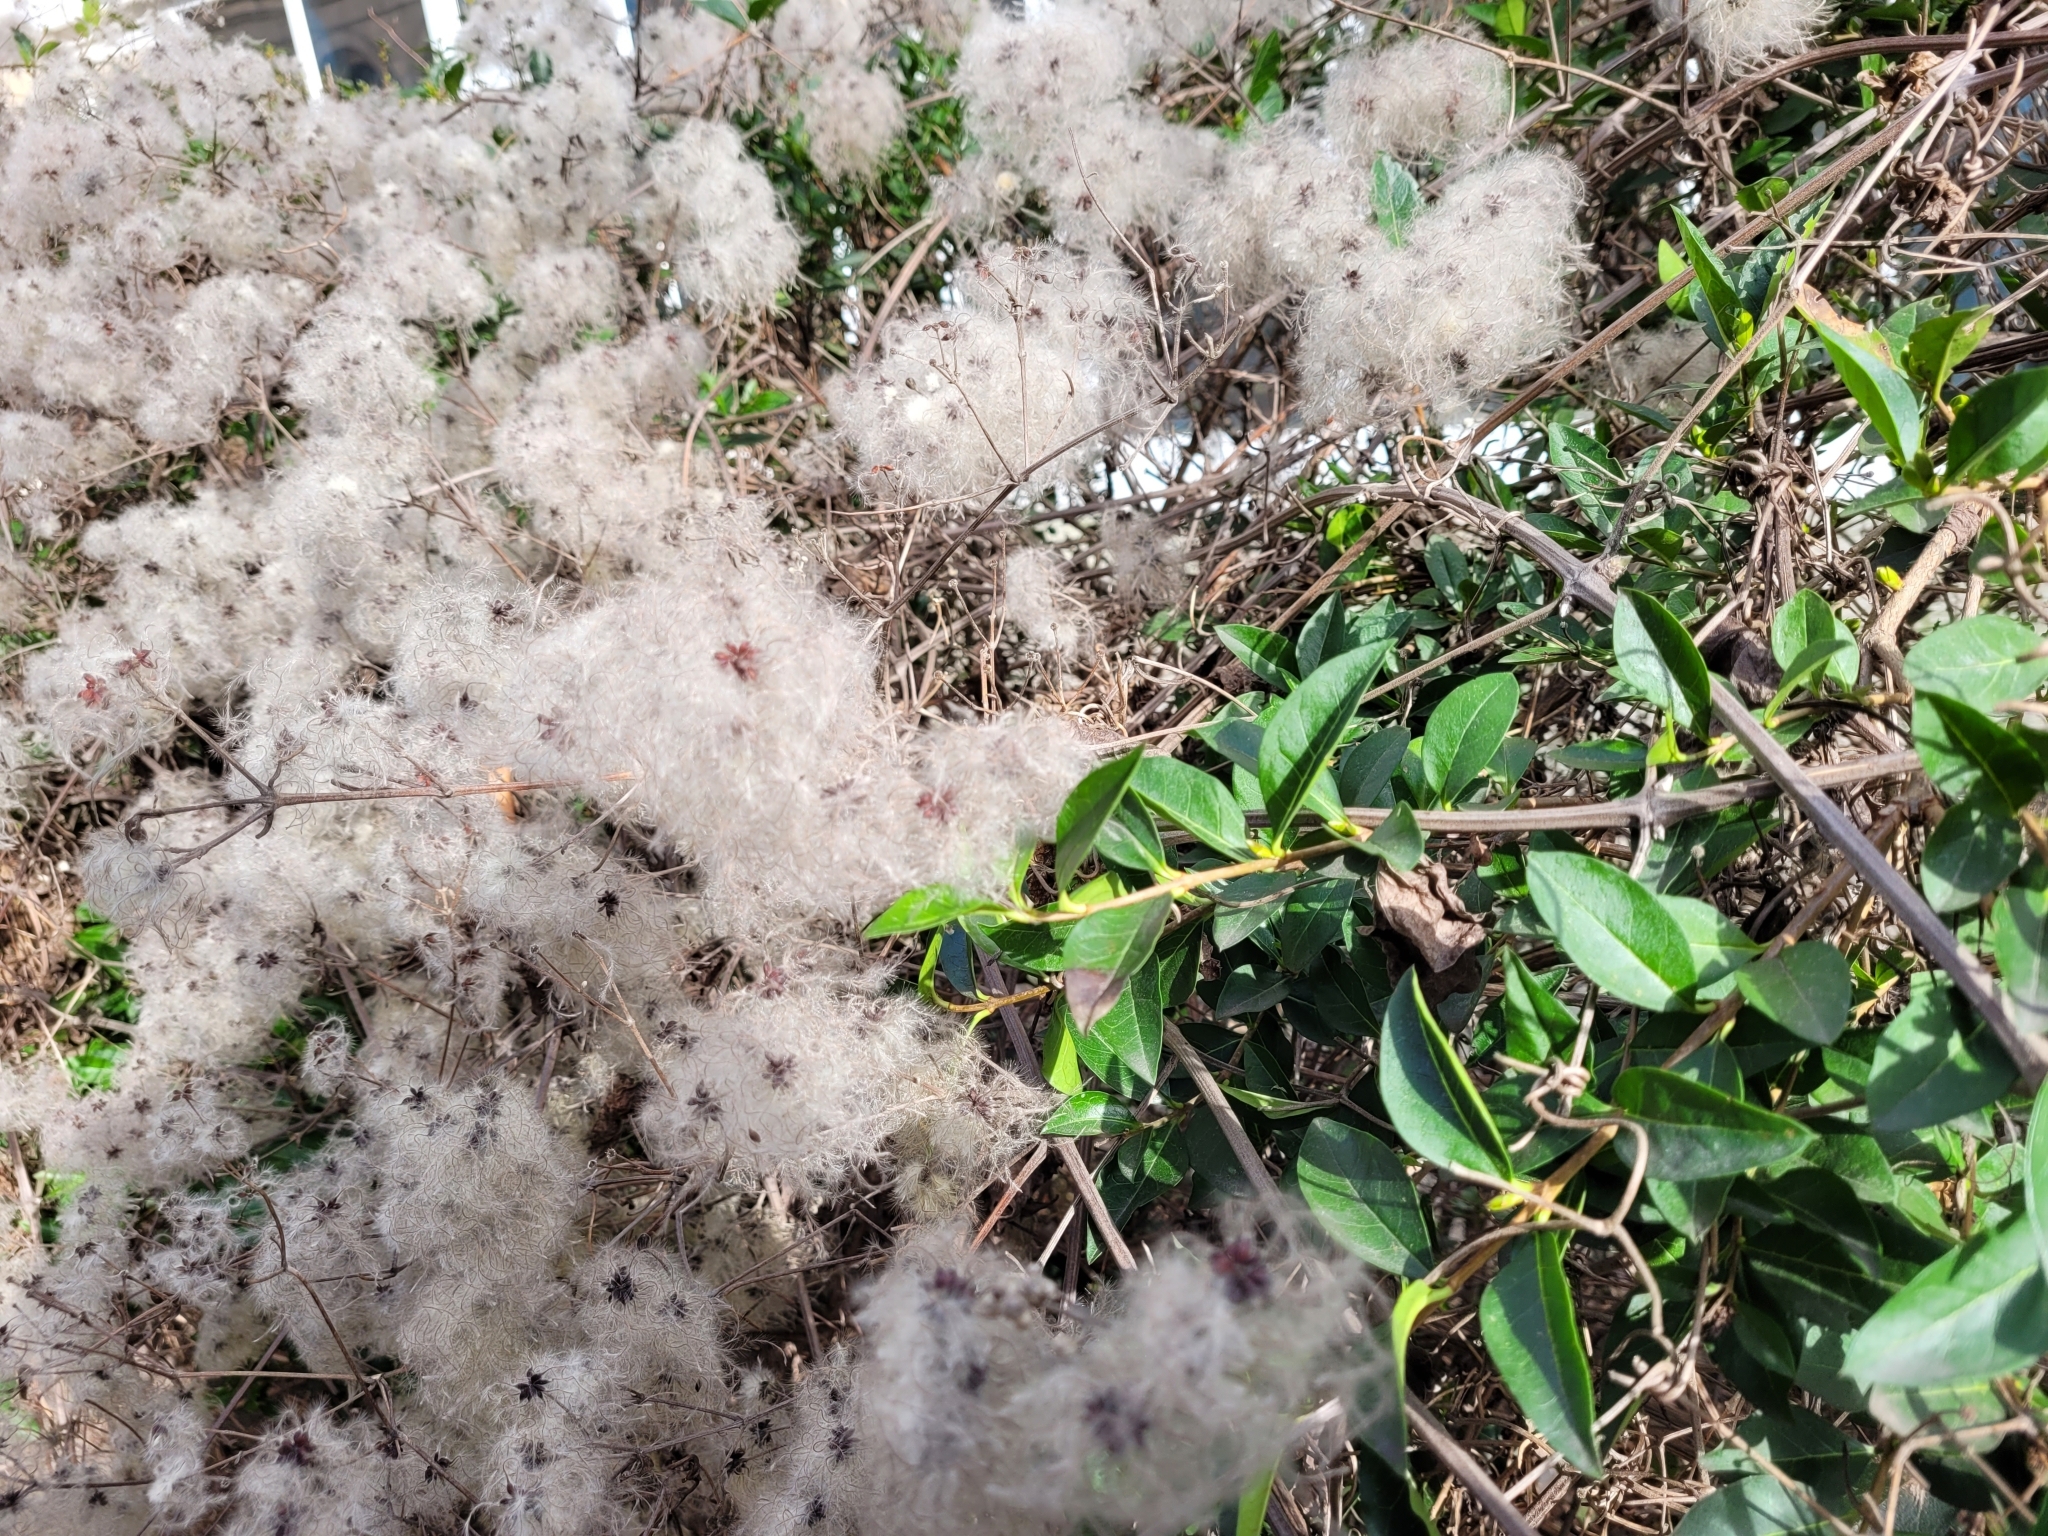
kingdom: Plantae
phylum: Tracheophyta
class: Magnoliopsida
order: Ranunculales
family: Ranunculaceae
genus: Clematis
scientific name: Clematis vitalba
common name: Evergreen clematis
